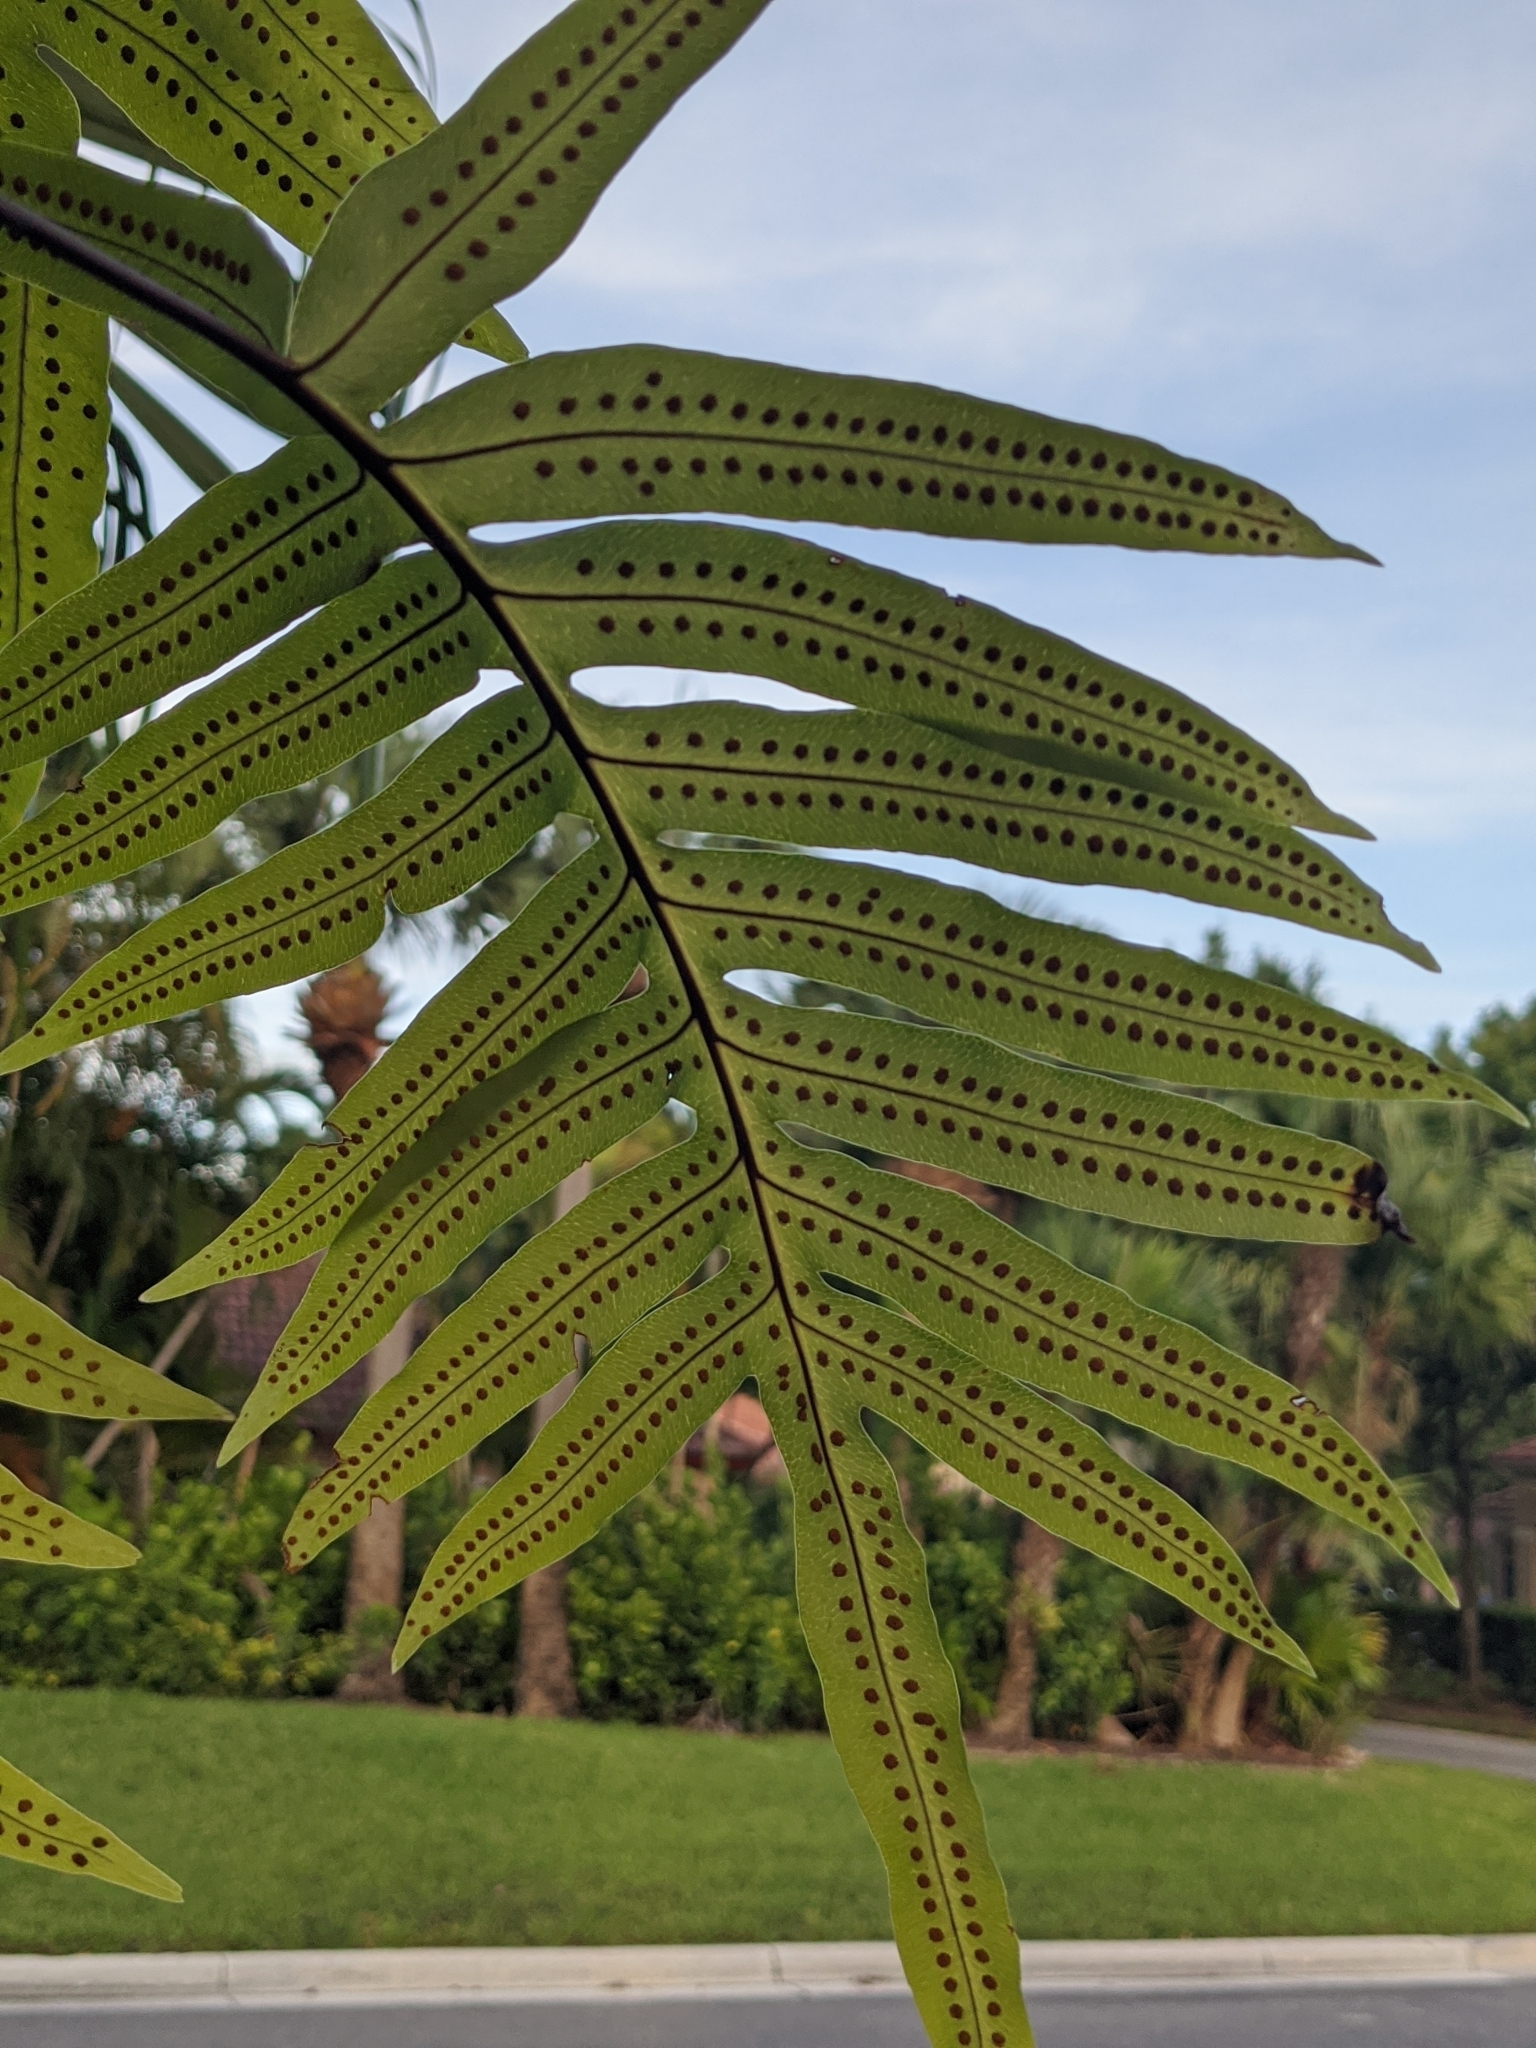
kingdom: Plantae
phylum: Tracheophyta
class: Polypodiopsida
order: Polypodiales
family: Polypodiaceae
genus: Phlebodium
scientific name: Phlebodium aureum
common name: Gold-foot fern
